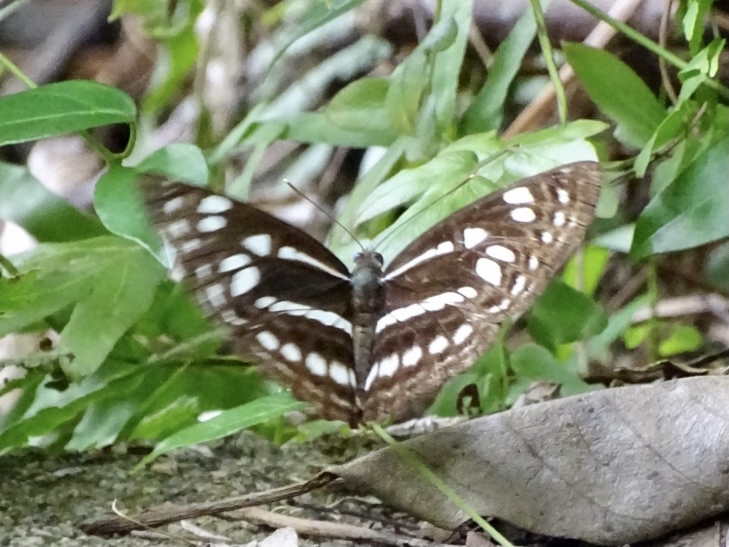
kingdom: Animalia
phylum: Arthropoda
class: Insecta
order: Lepidoptera
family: Nymphalidae
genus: Phaedyma
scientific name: Phaedyma columella
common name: Short banded sailer
